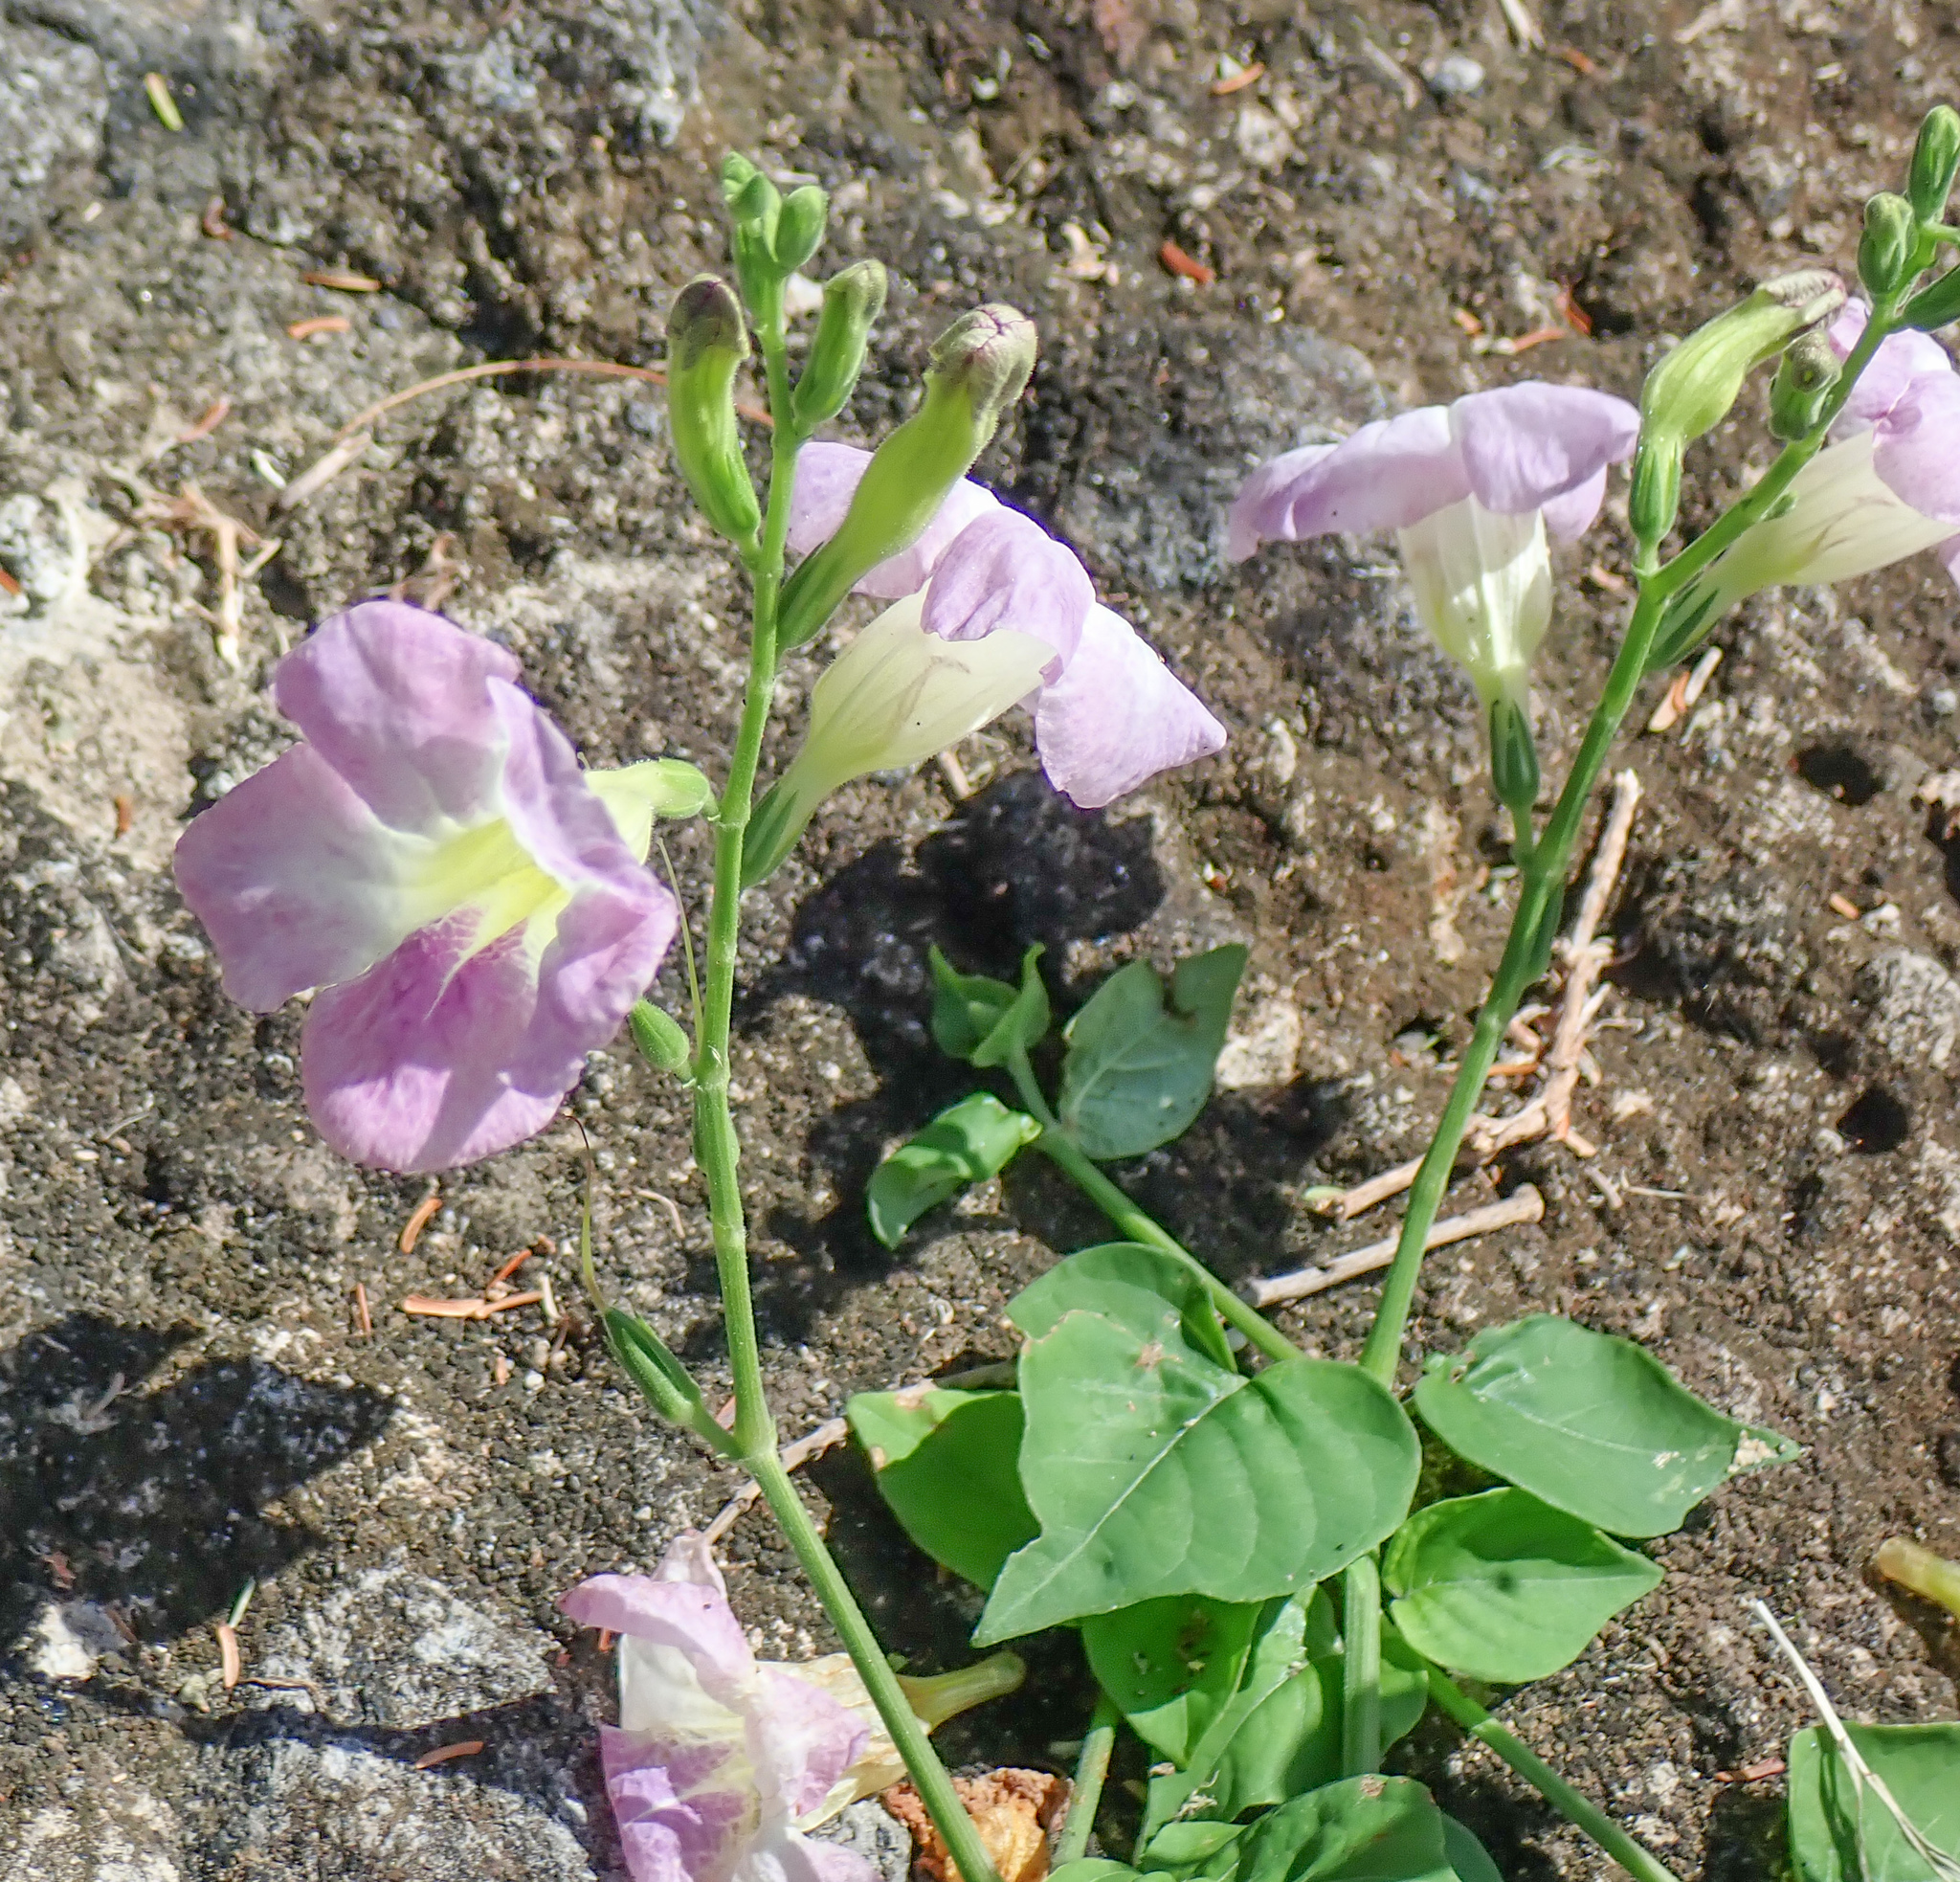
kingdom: Plantae
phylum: Tracheophyta
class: Magnoliopsida
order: Lamiales
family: Acanthaceae
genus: Asystasia
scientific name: Asystasia gangetica
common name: Chinese violet
